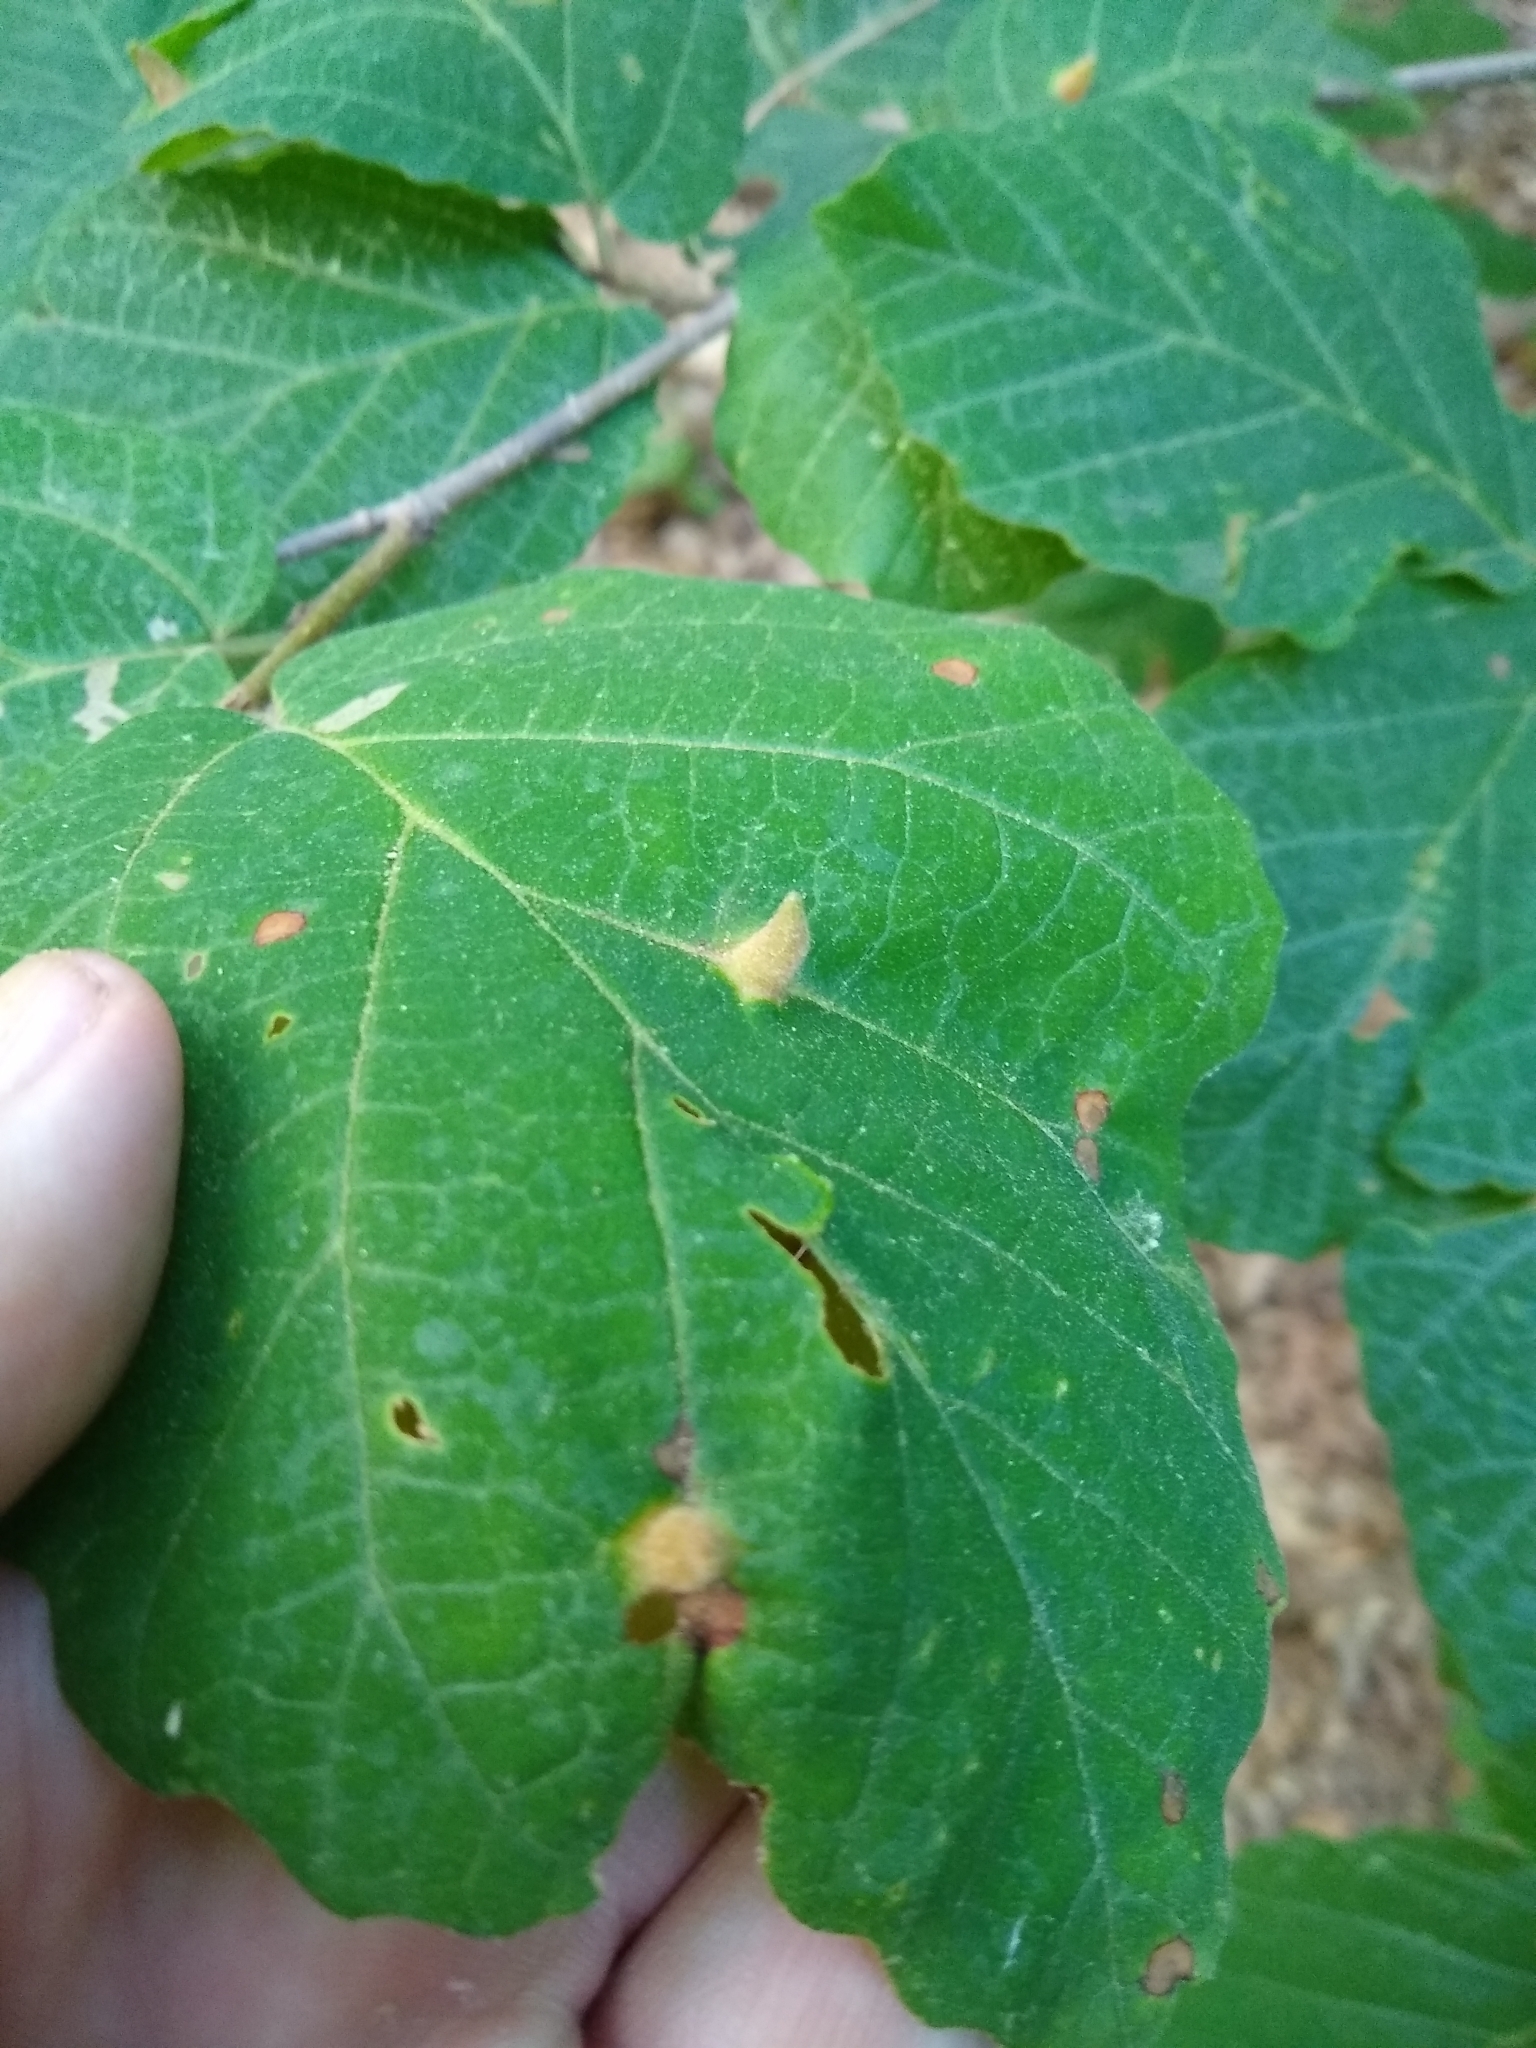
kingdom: Animalia
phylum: Arthropoda
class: Insecta
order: Hemiptera
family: Aphididae
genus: Hormaphis
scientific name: Hormaphis hamamelidis
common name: Witch-hazel cone gall aphid
